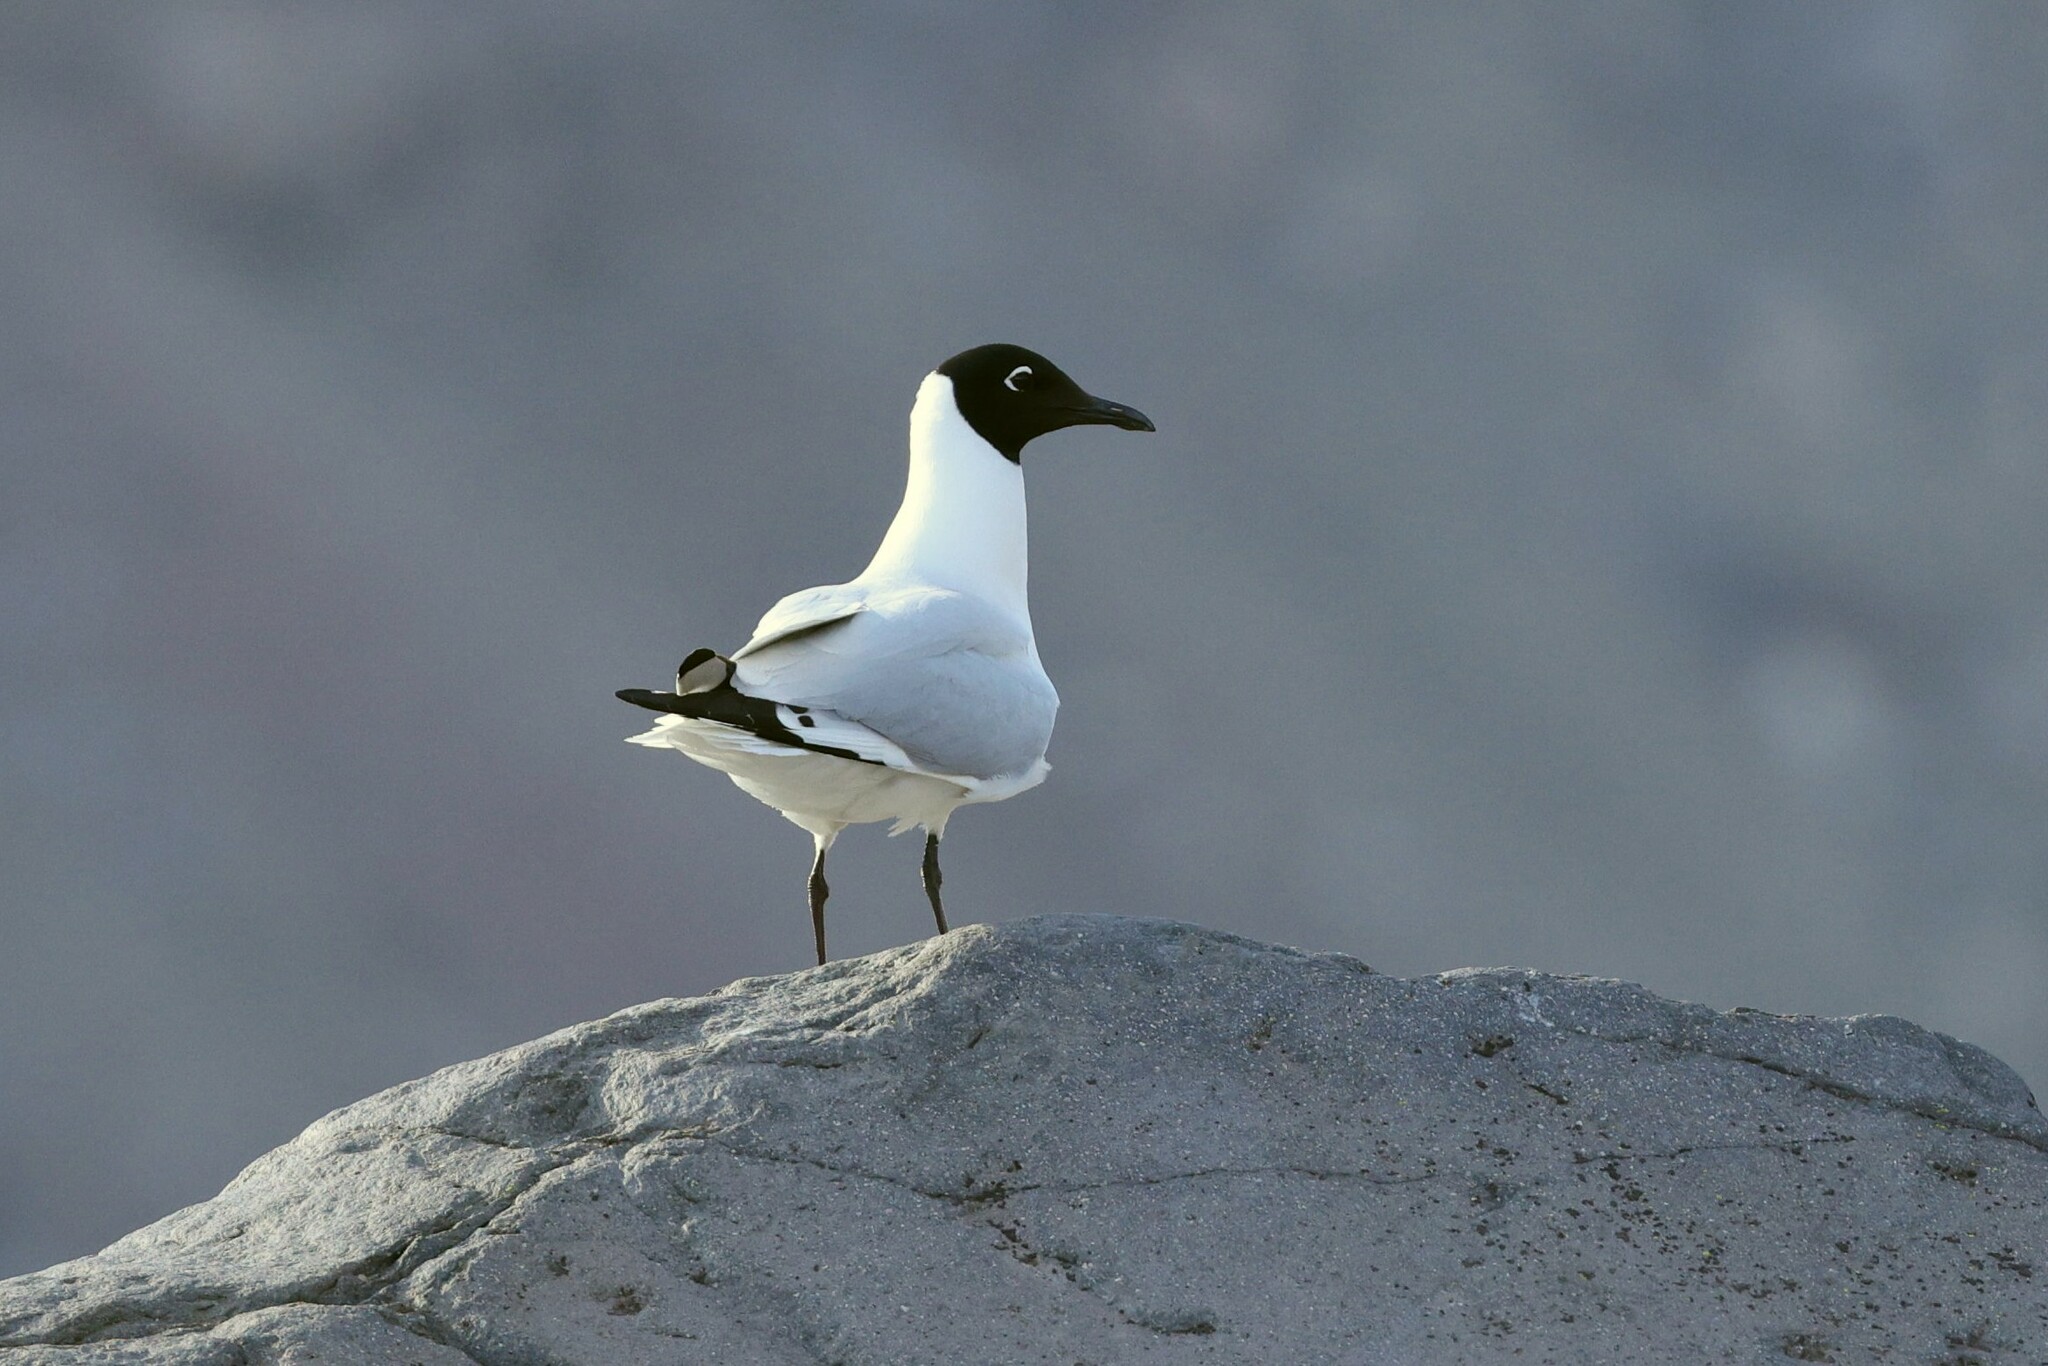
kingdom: Animalia
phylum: Chordata
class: Aves
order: Charadriiformes
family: Laridae
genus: Chroicocephalus
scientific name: Chroicocephalus serranus
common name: Andean gull
